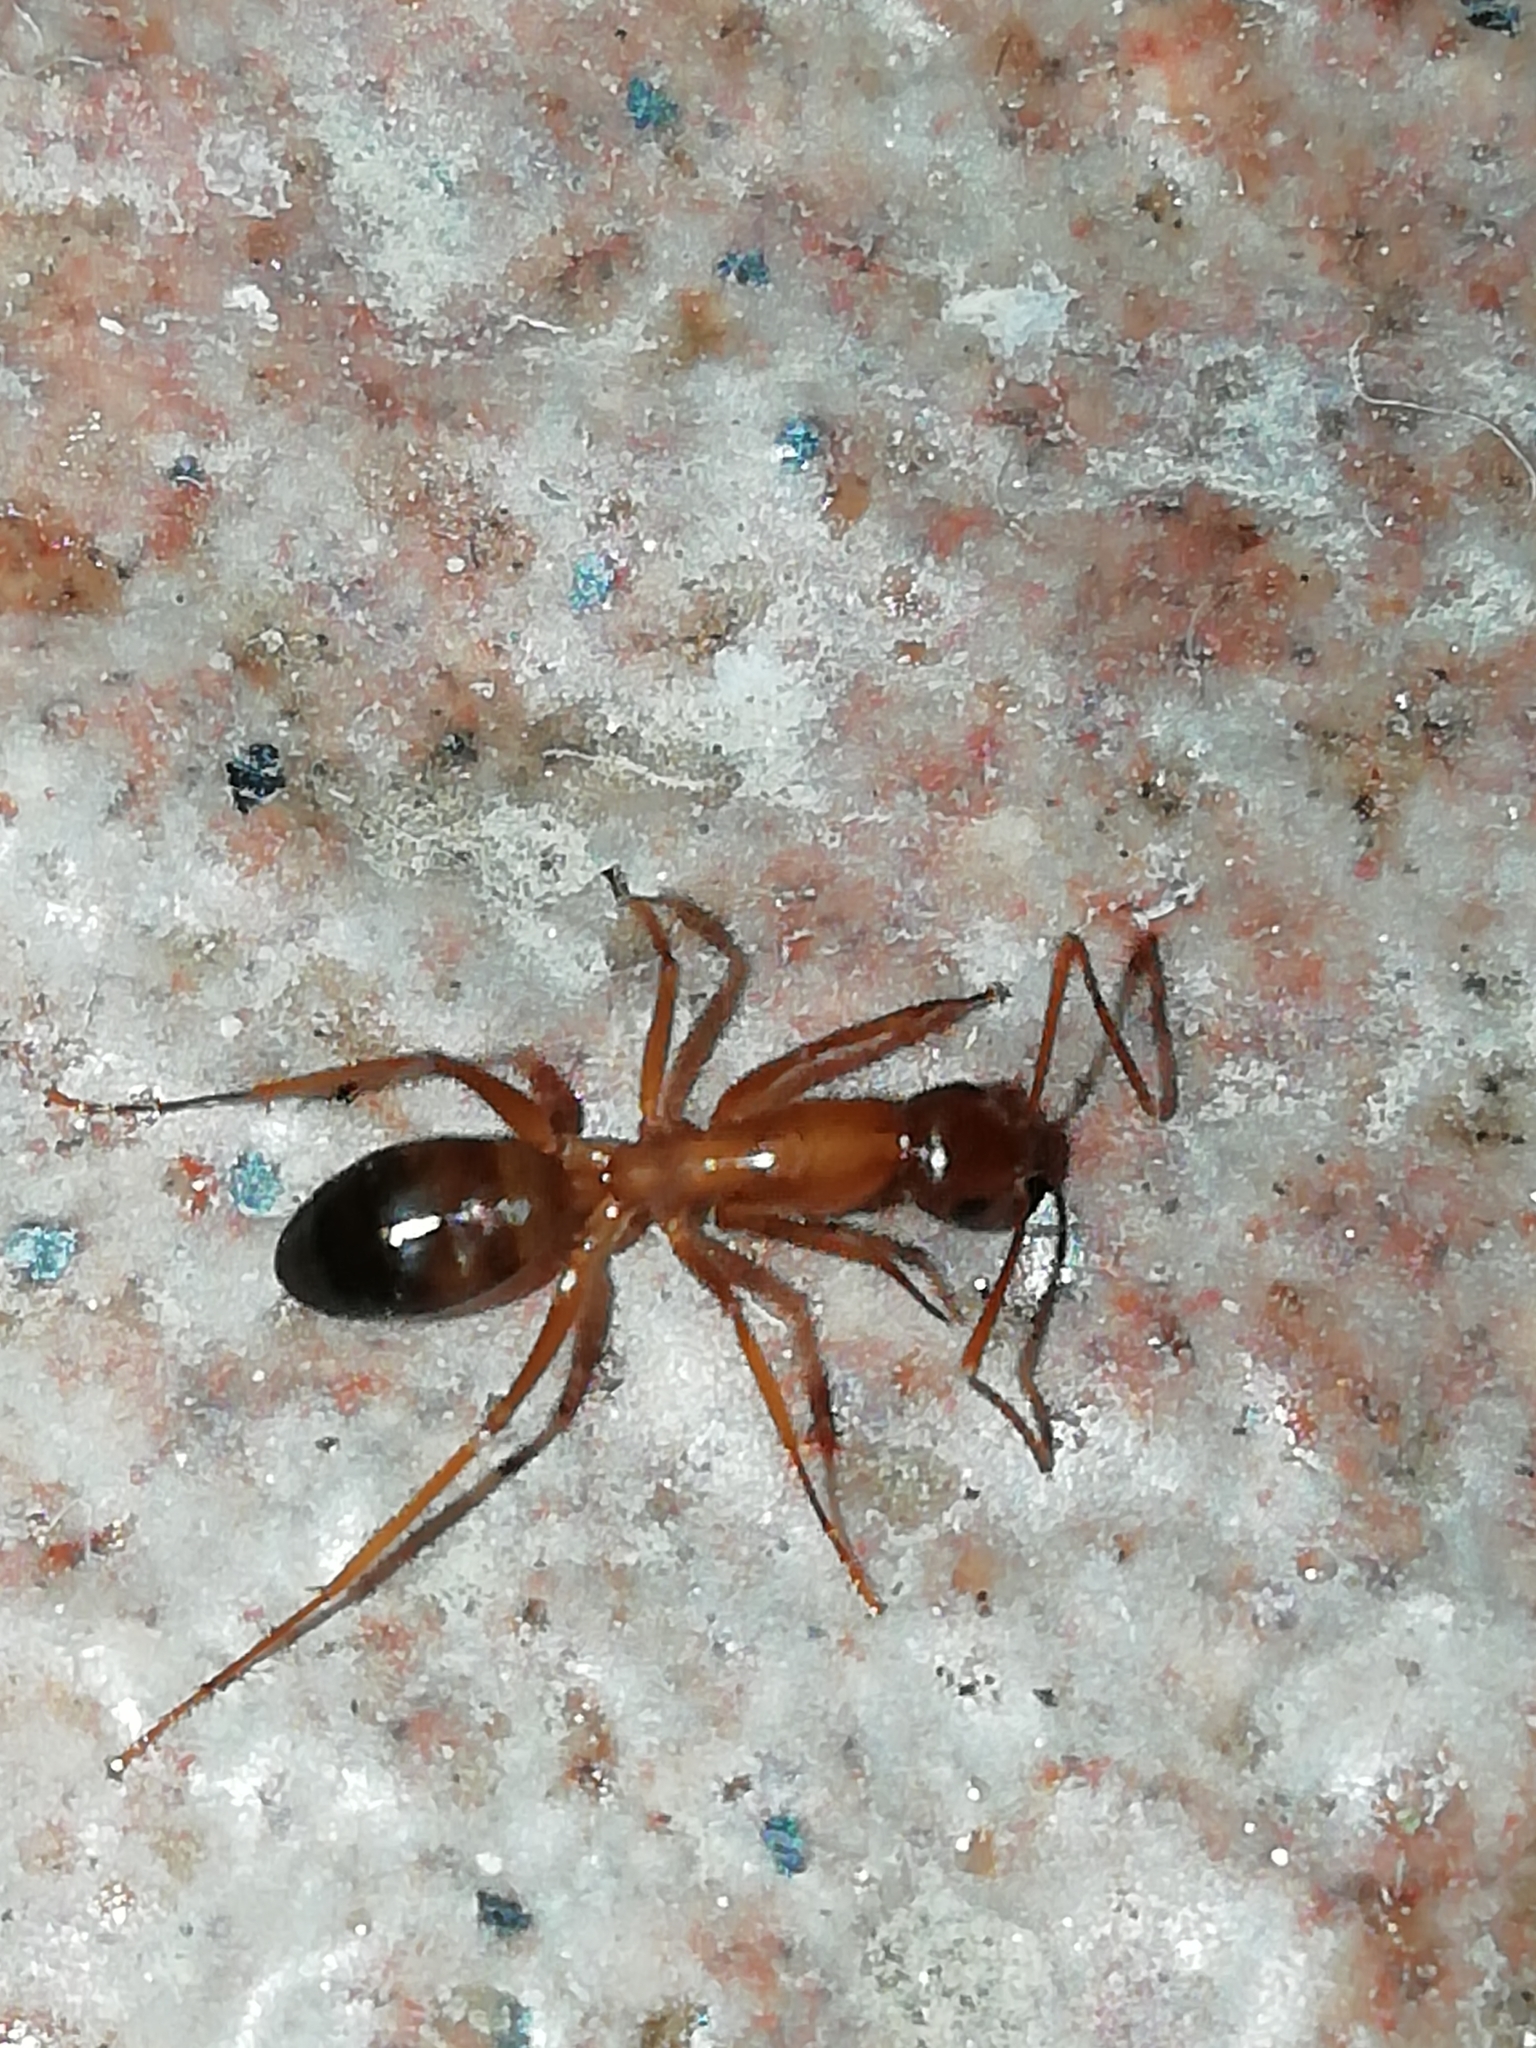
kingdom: Animalia
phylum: Arthropoda
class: Insecta
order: Hymenoptera
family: Formicidae
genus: Camponotus
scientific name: Camponotus nylanderi
